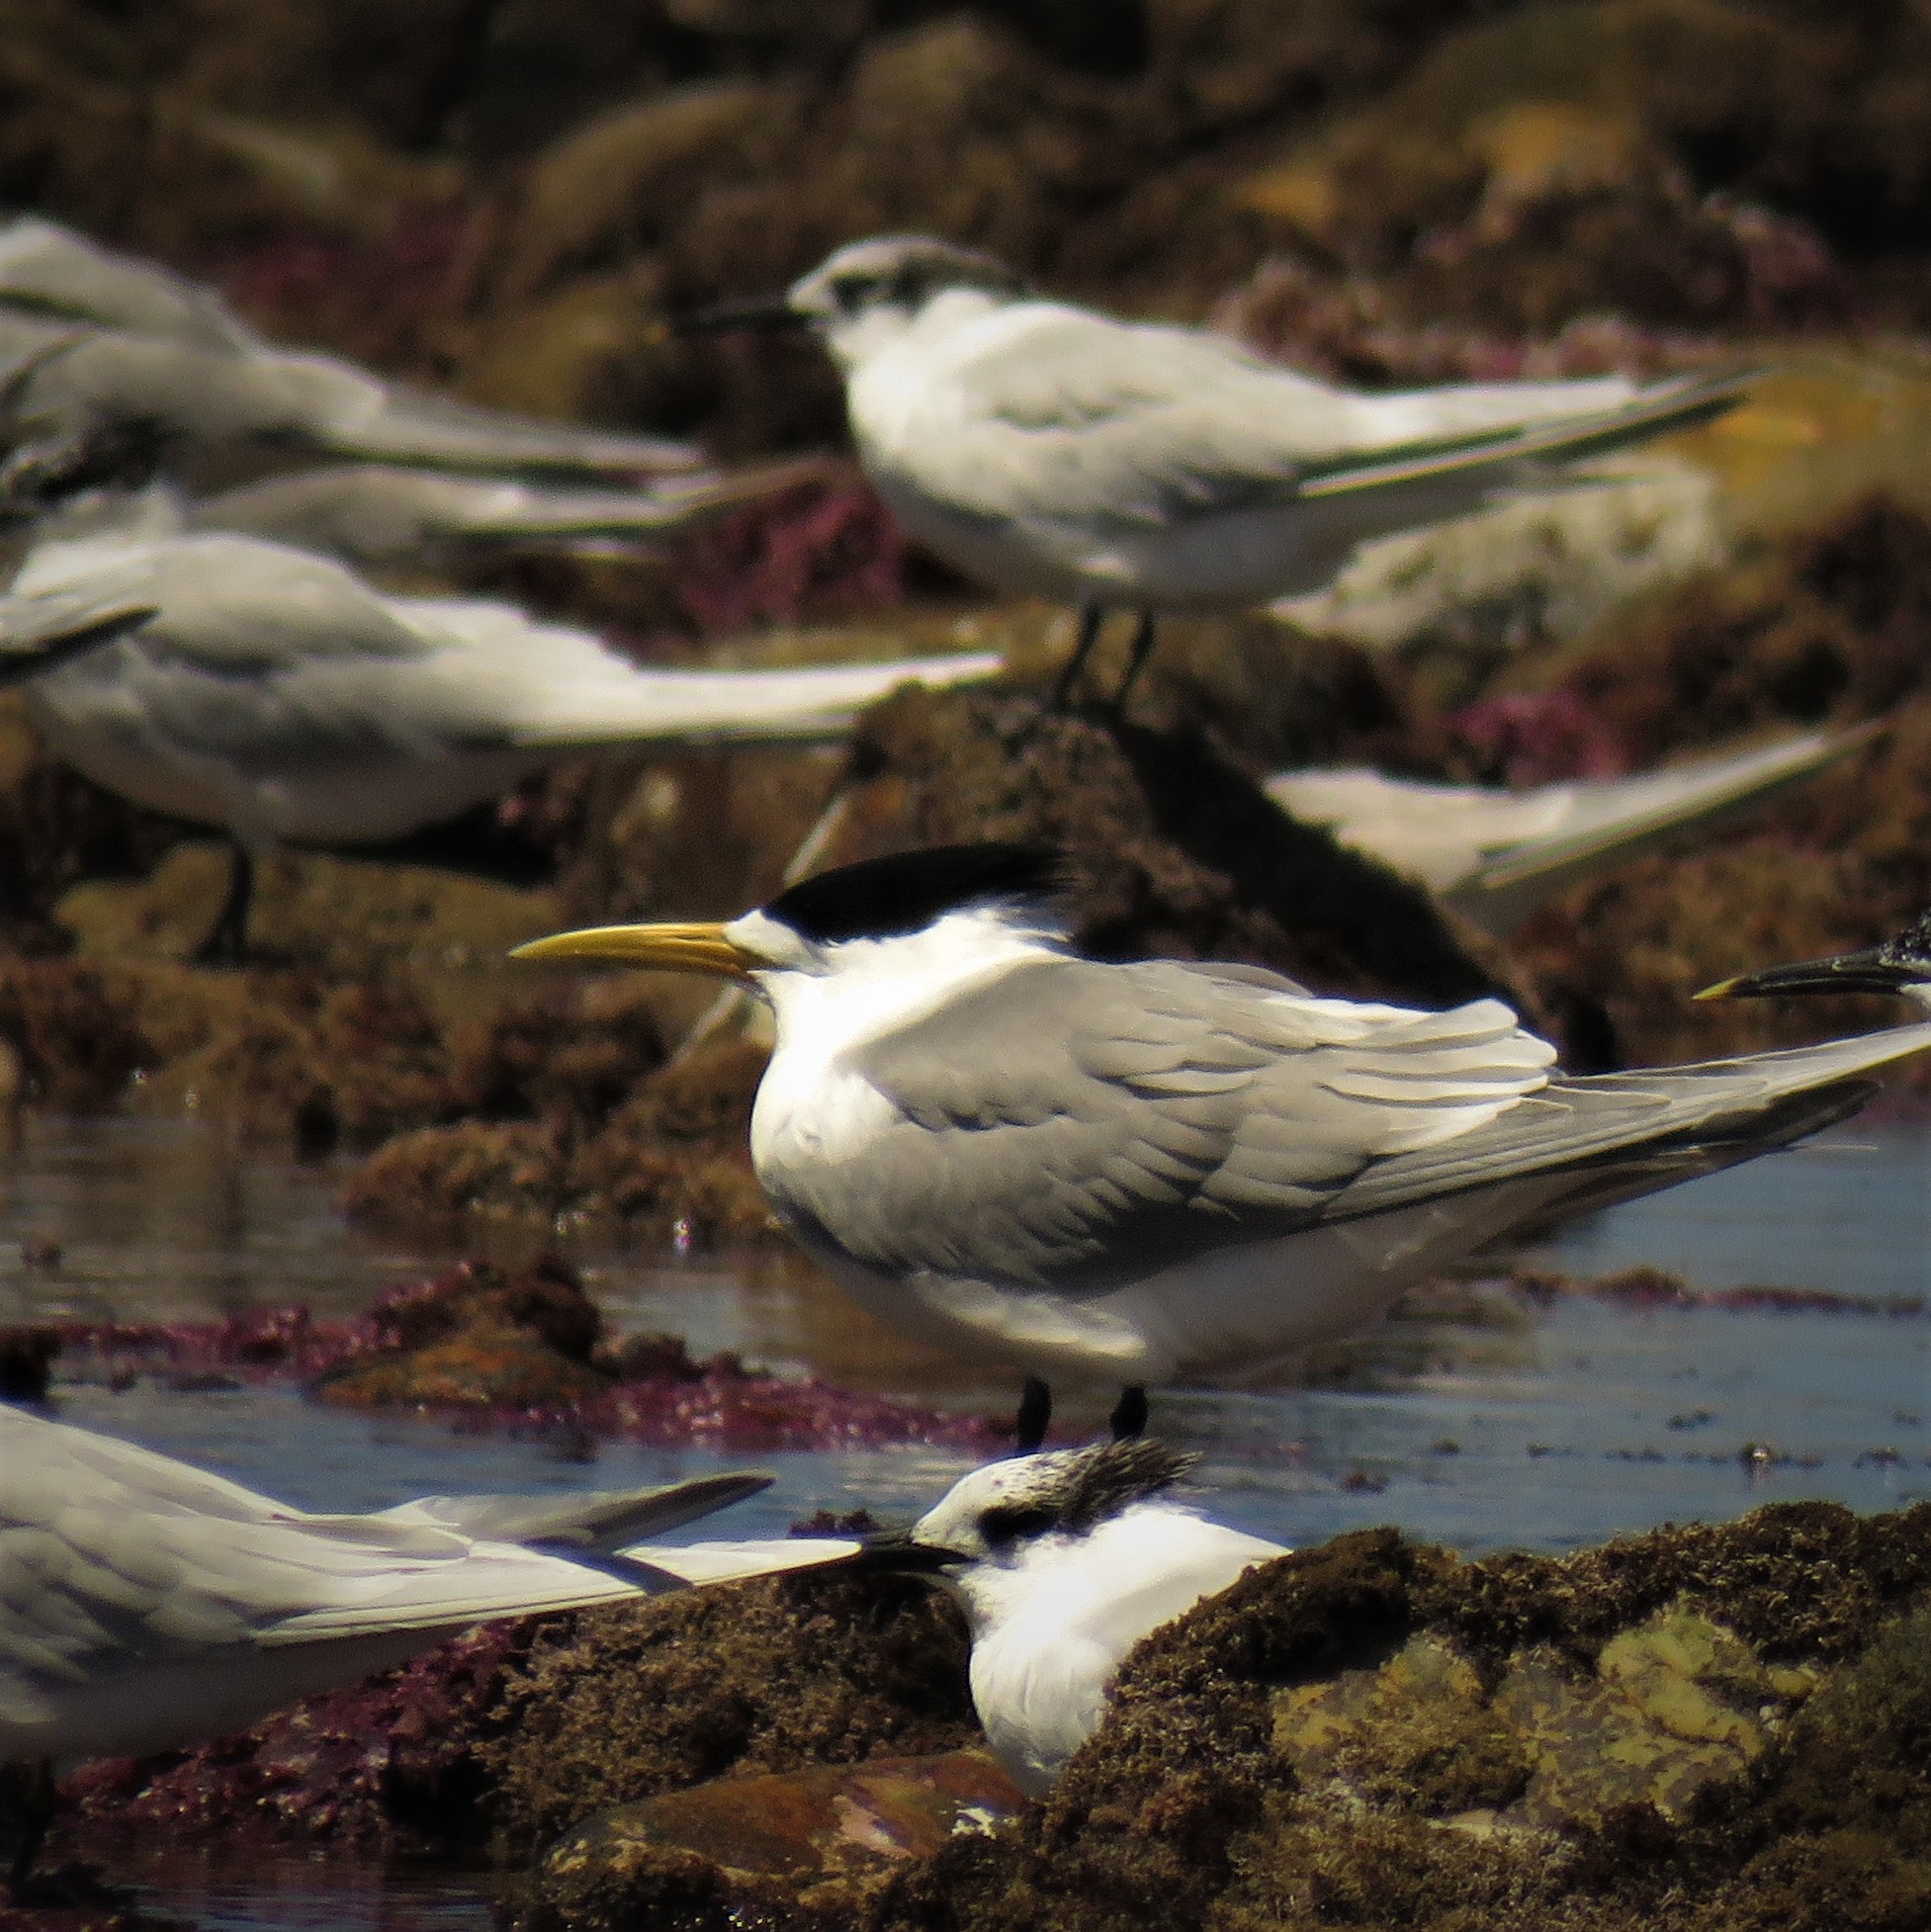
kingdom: Animalia
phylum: Chordata
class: Aves
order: Charadriiformes
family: Laridae
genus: Thalasseus
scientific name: Thalasseus bergii
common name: Greater crested tern
